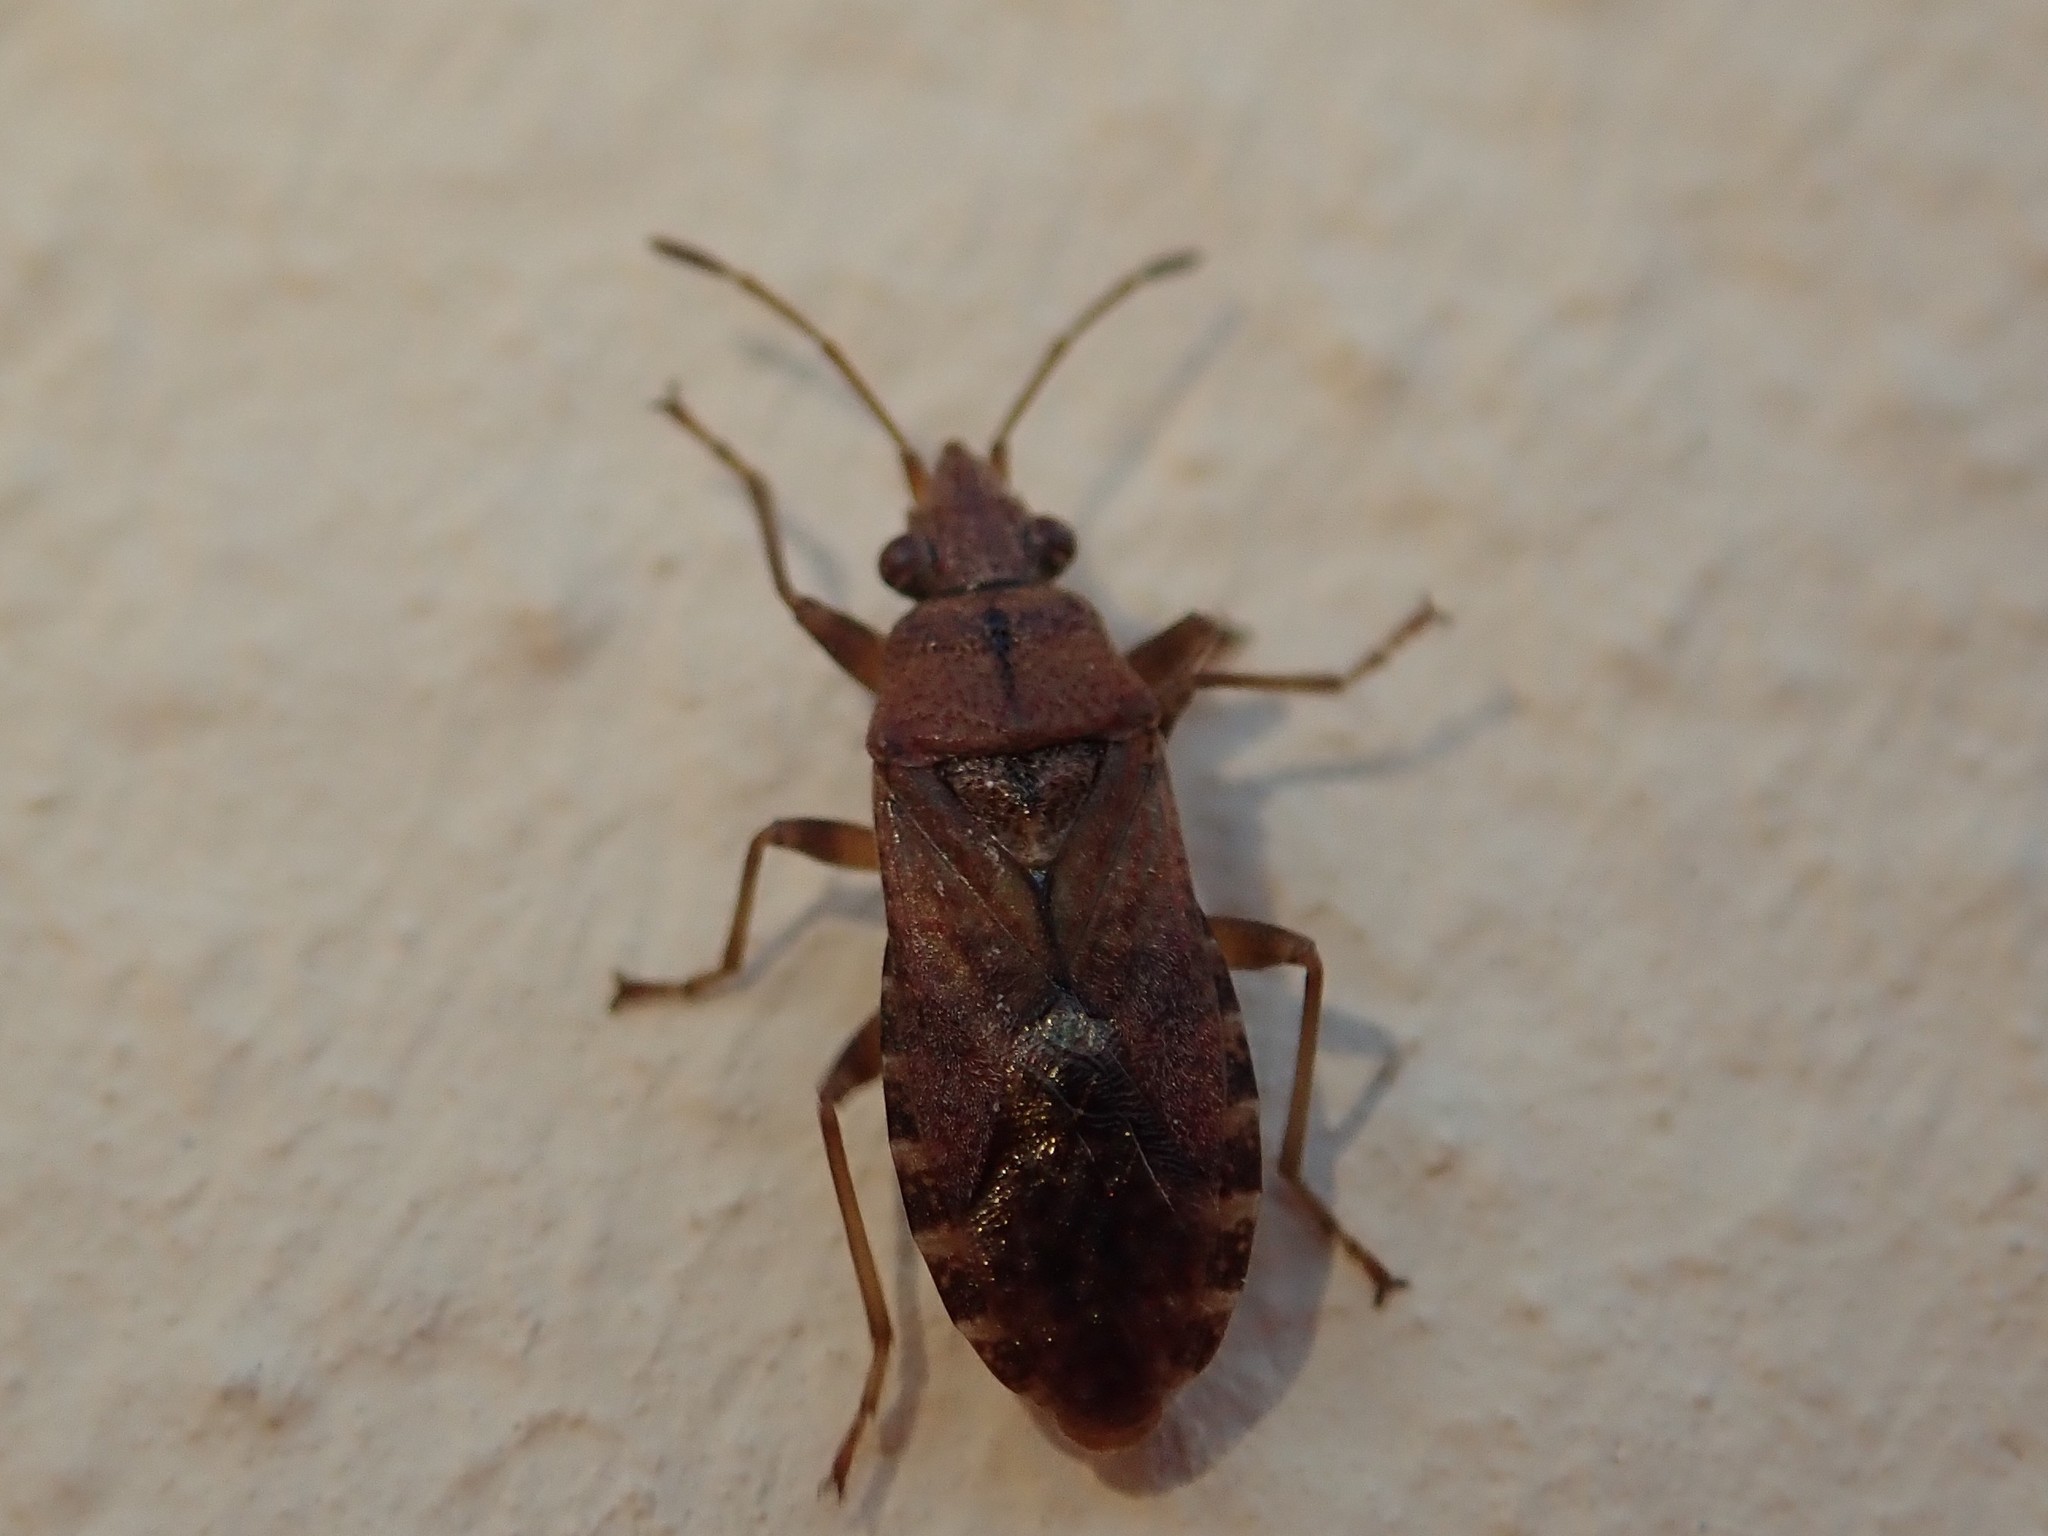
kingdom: Animalia
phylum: Arthropoda
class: Insecta
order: Hemiptera
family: Lygaeidae
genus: Orsillus
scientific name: Orsillus depressus
